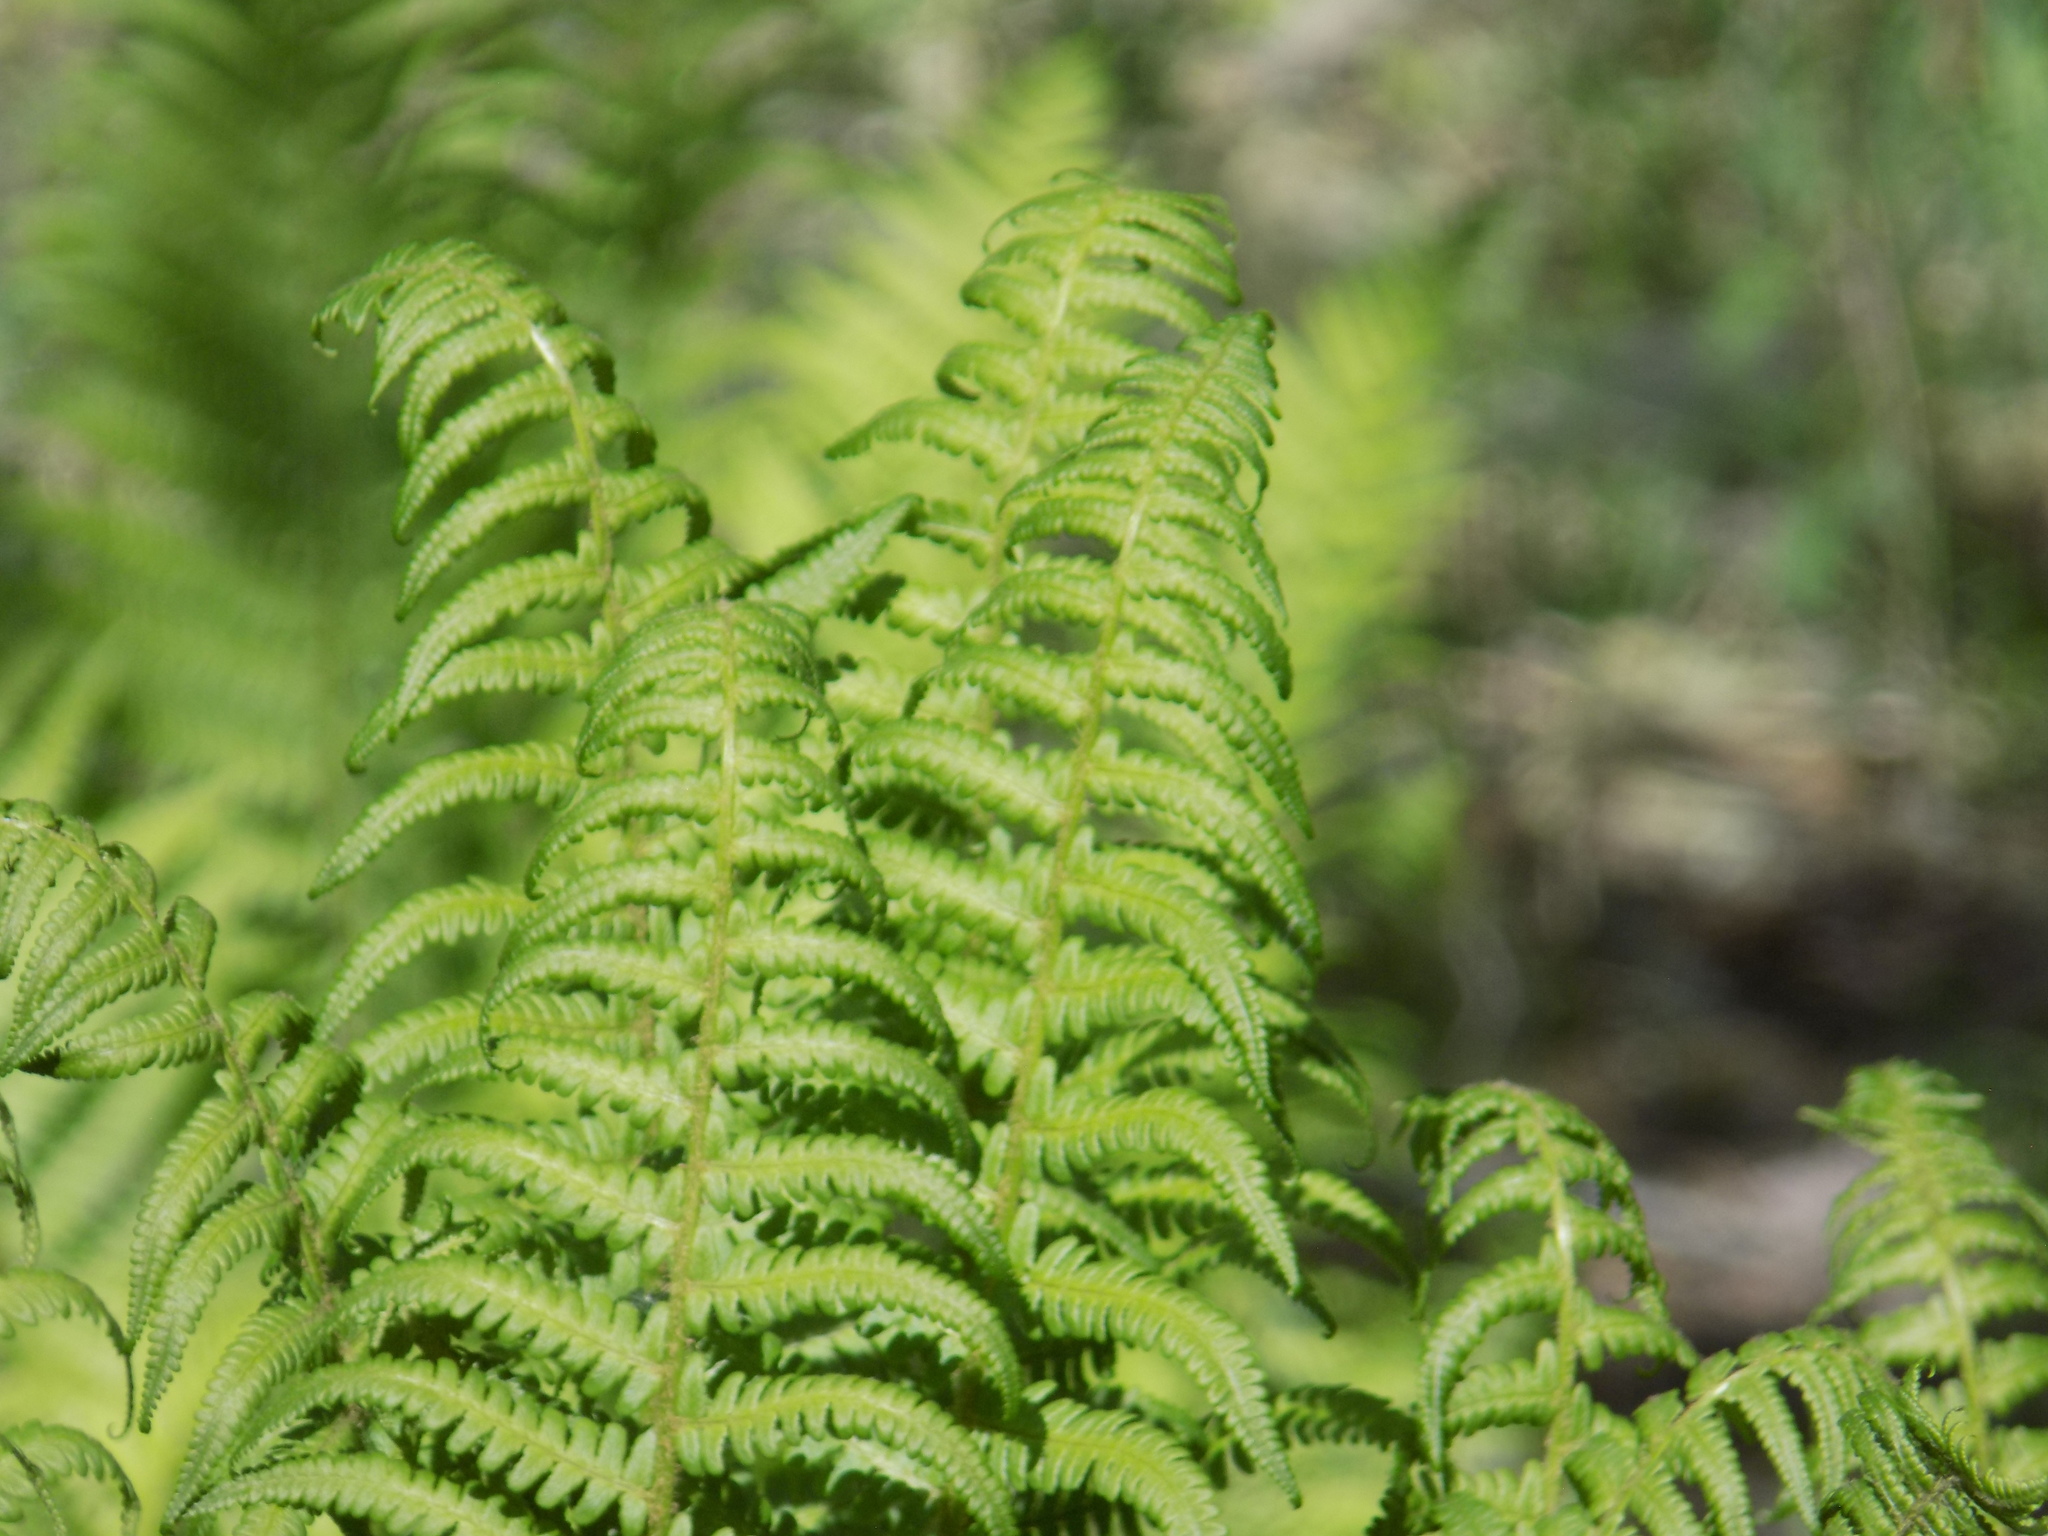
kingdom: Plantae
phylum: Tracheophyta
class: Polypodiopsida
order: Polypodiales
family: Onocleaceae
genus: Matteuccia
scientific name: Matteuccia struthiopteris
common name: Ostrich fern
